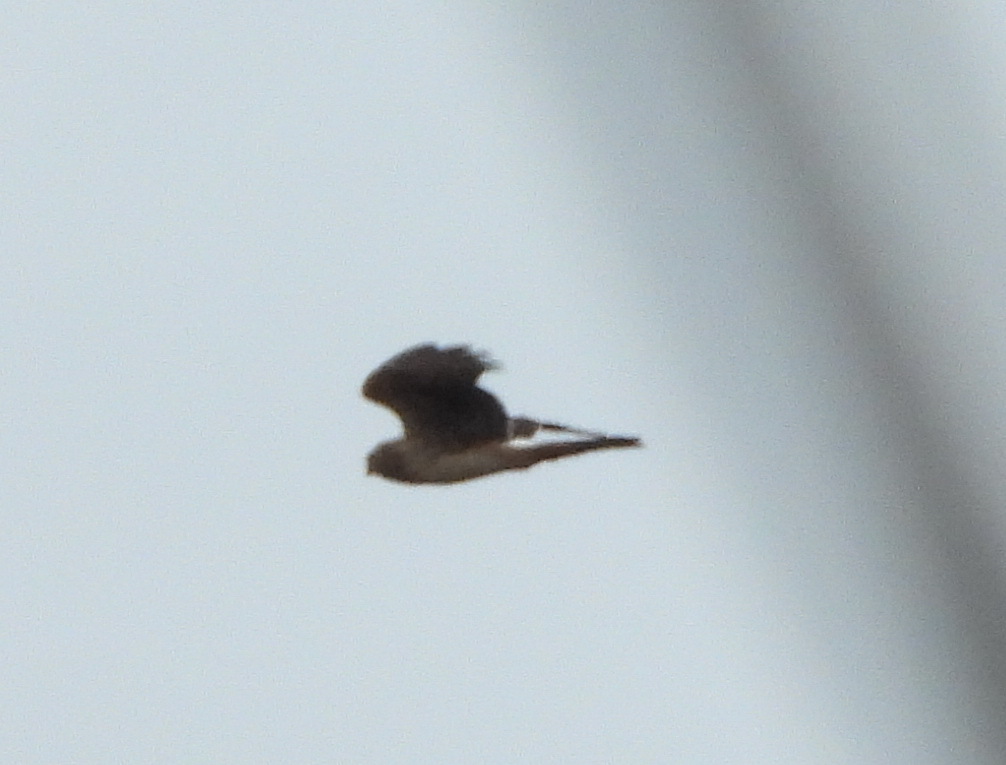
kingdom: Animalia
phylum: Chordata
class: Aves
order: Accipitriformes
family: Accipitridae
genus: Circus
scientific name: Circus cyaneus
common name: Hen harrier
